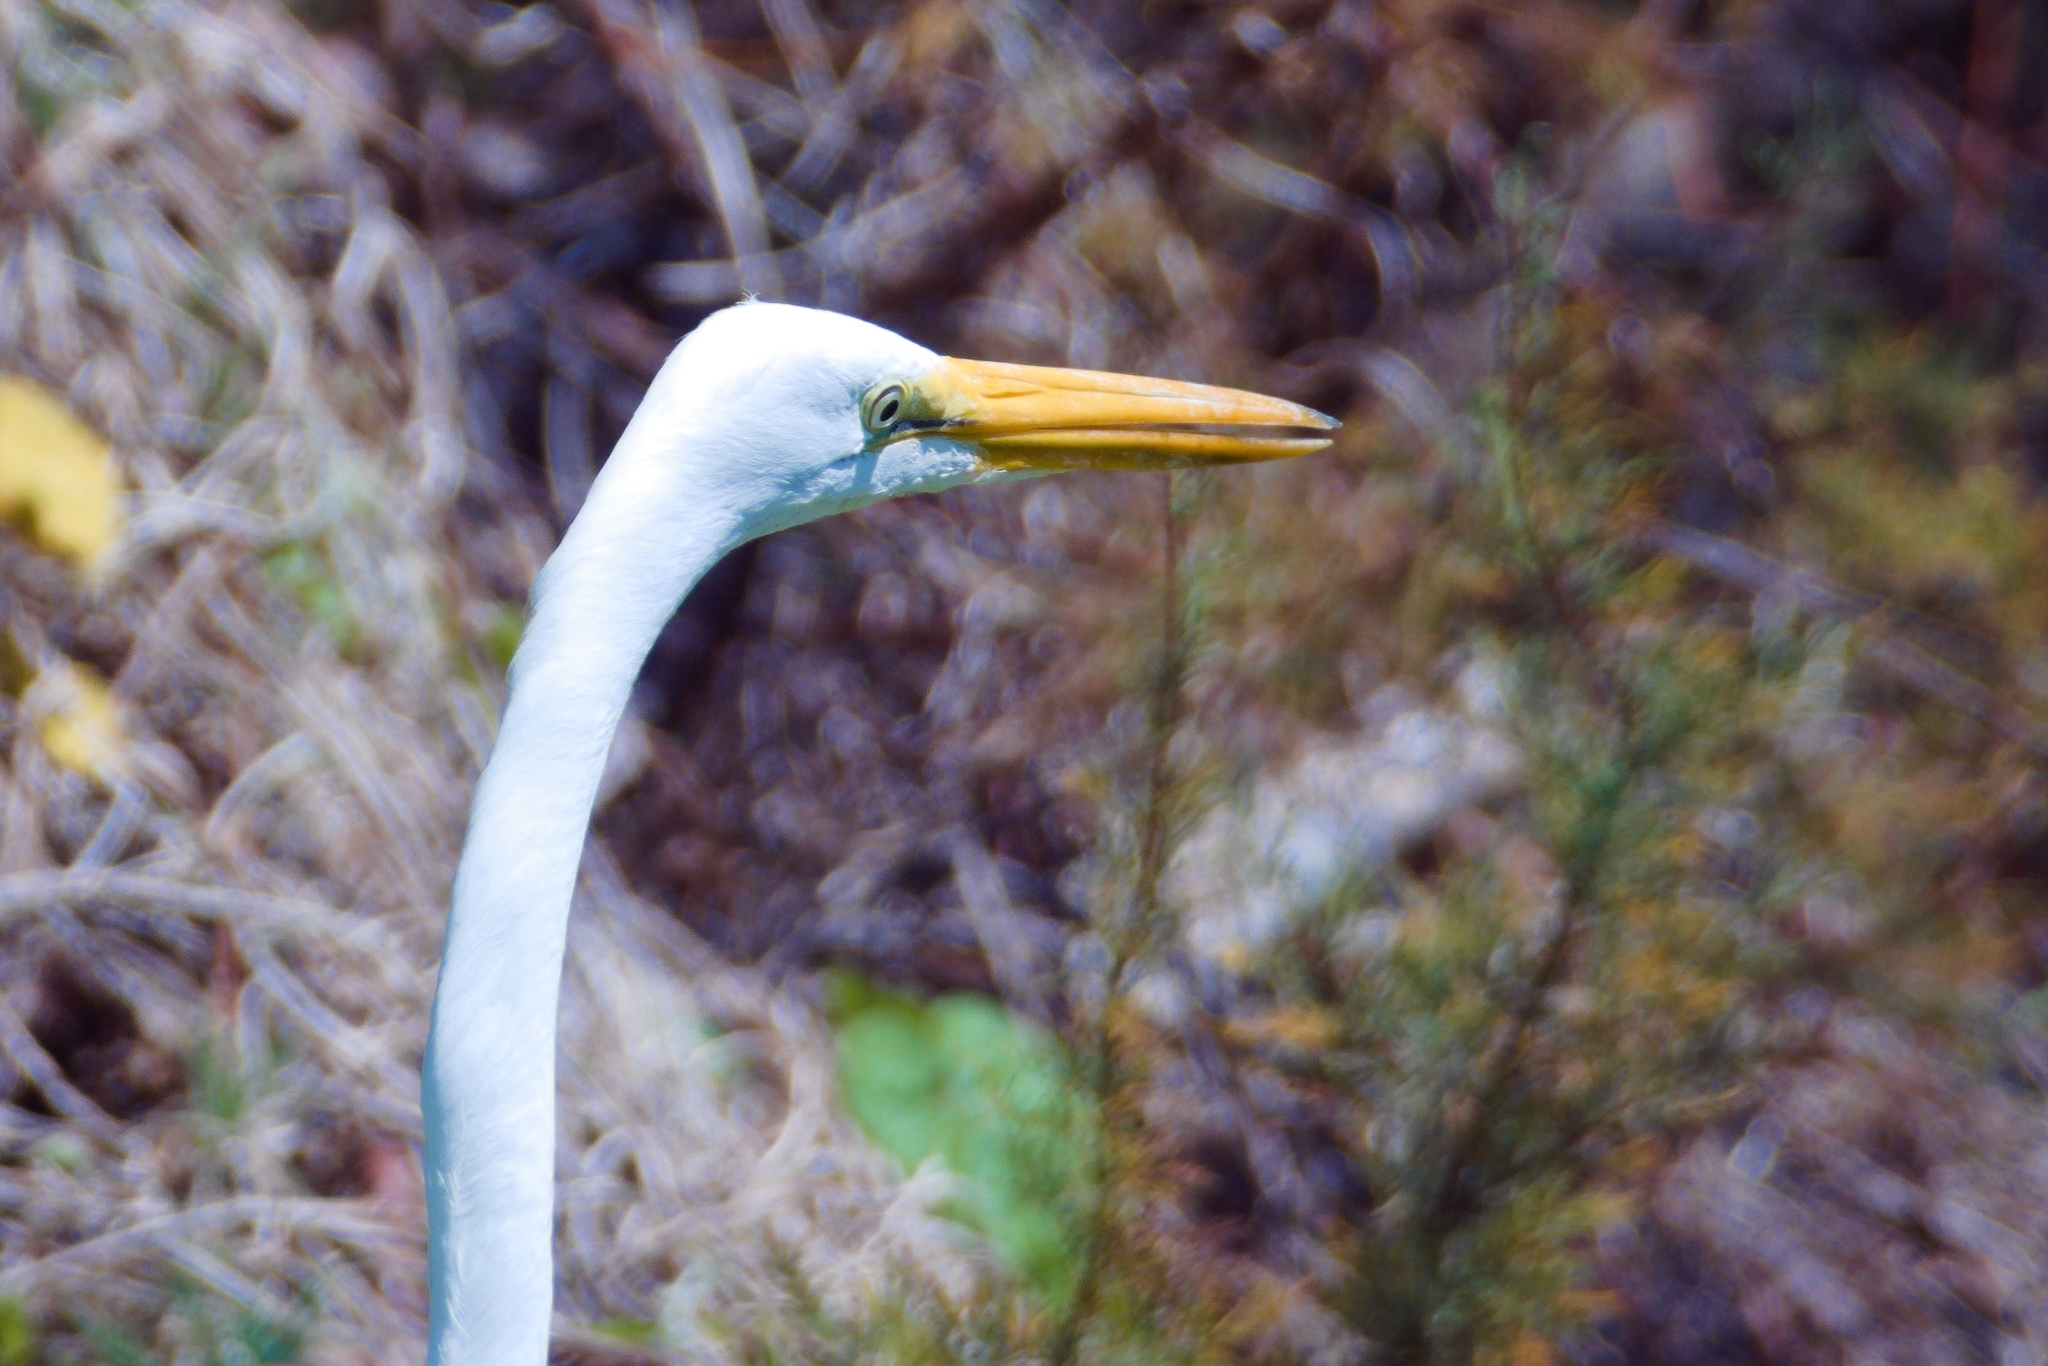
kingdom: Animalia
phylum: Chordata
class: Aves
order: Pelecaniformes
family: Ardeidae
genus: Ardea
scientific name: Ardea alba
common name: Great egret
